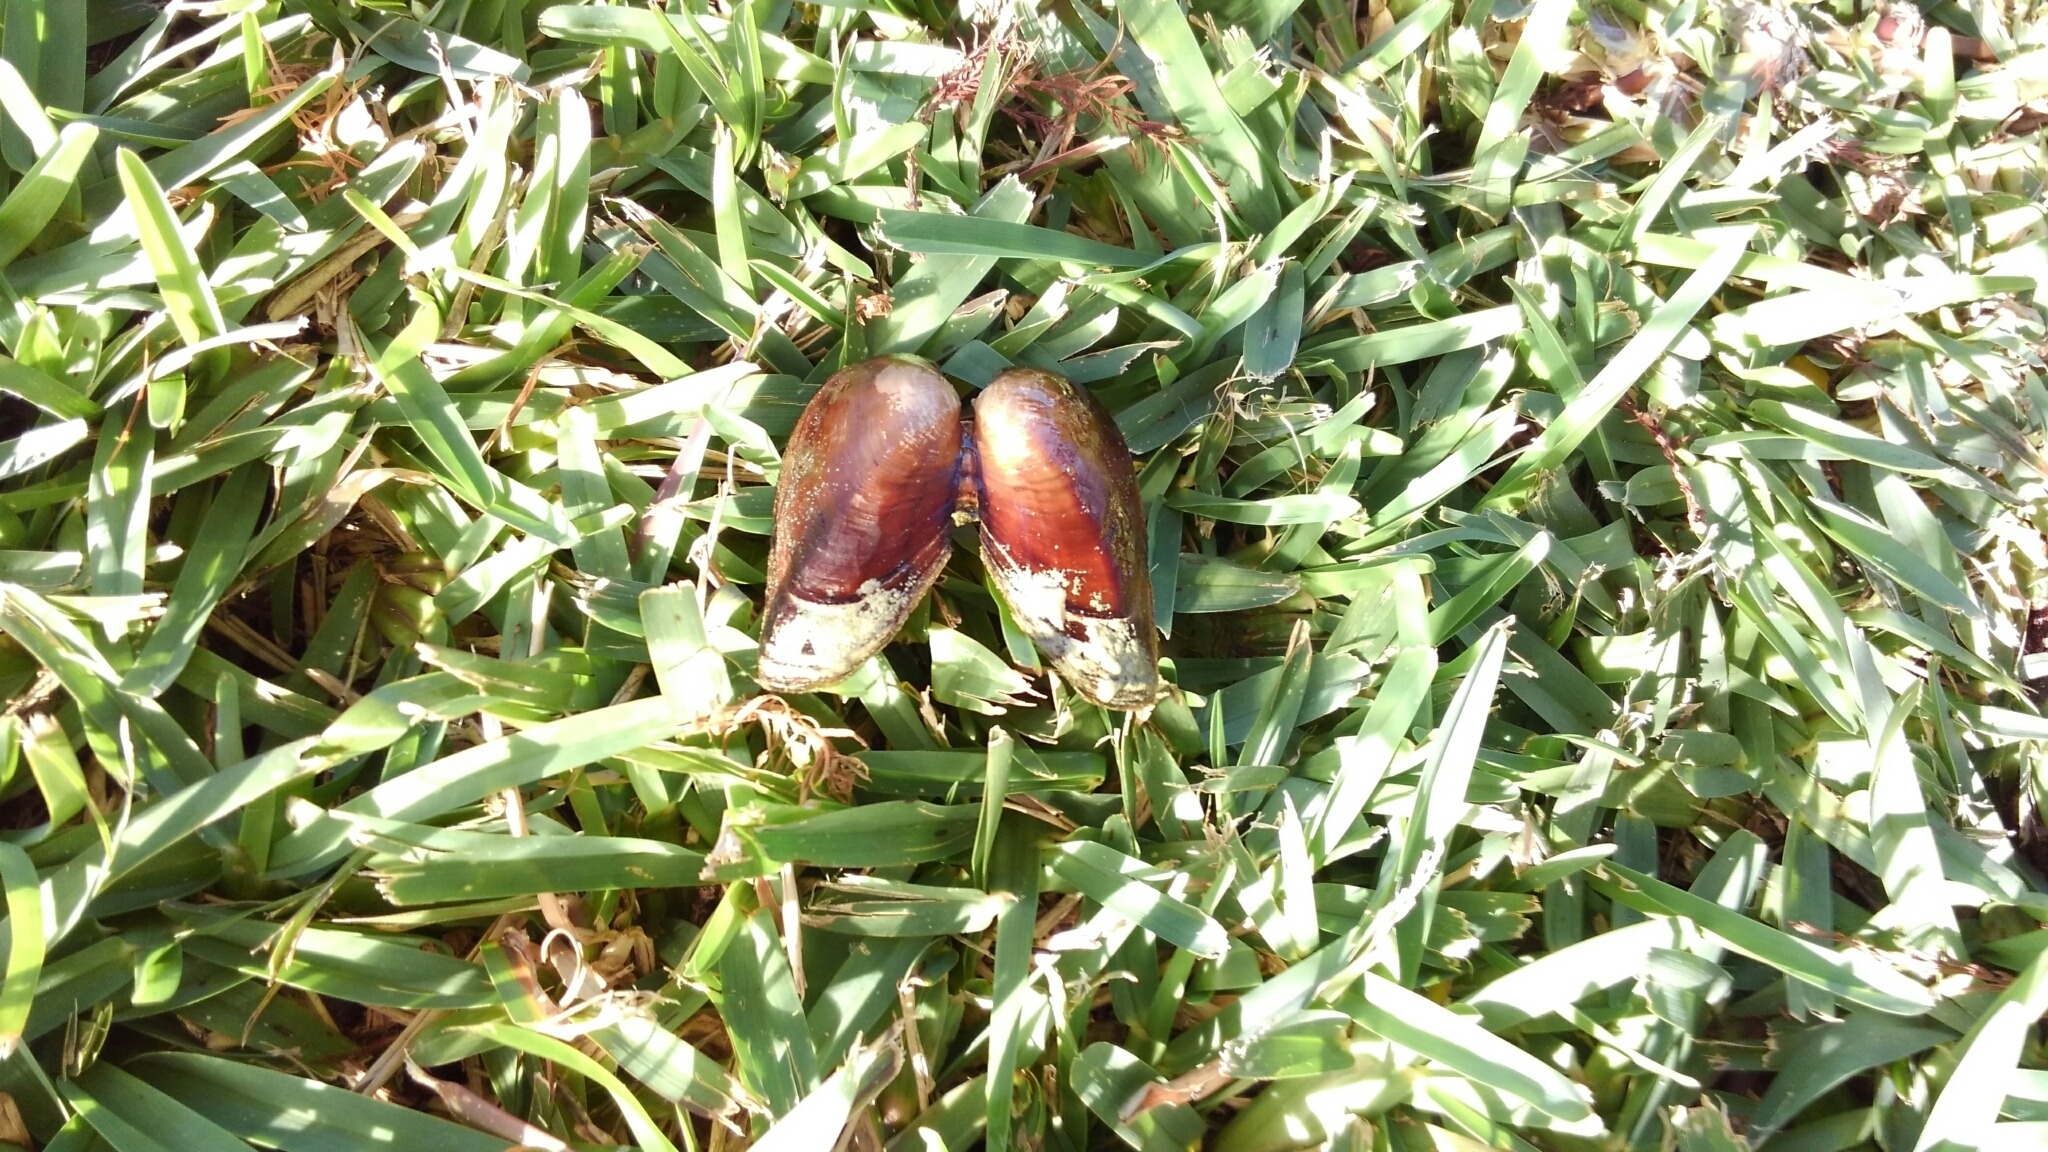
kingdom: Animalia
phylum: Mollusca
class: Bivalvia
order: Unionida
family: Unionidae
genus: Elliptio
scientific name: Elliptio jayensis
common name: Florida spike
